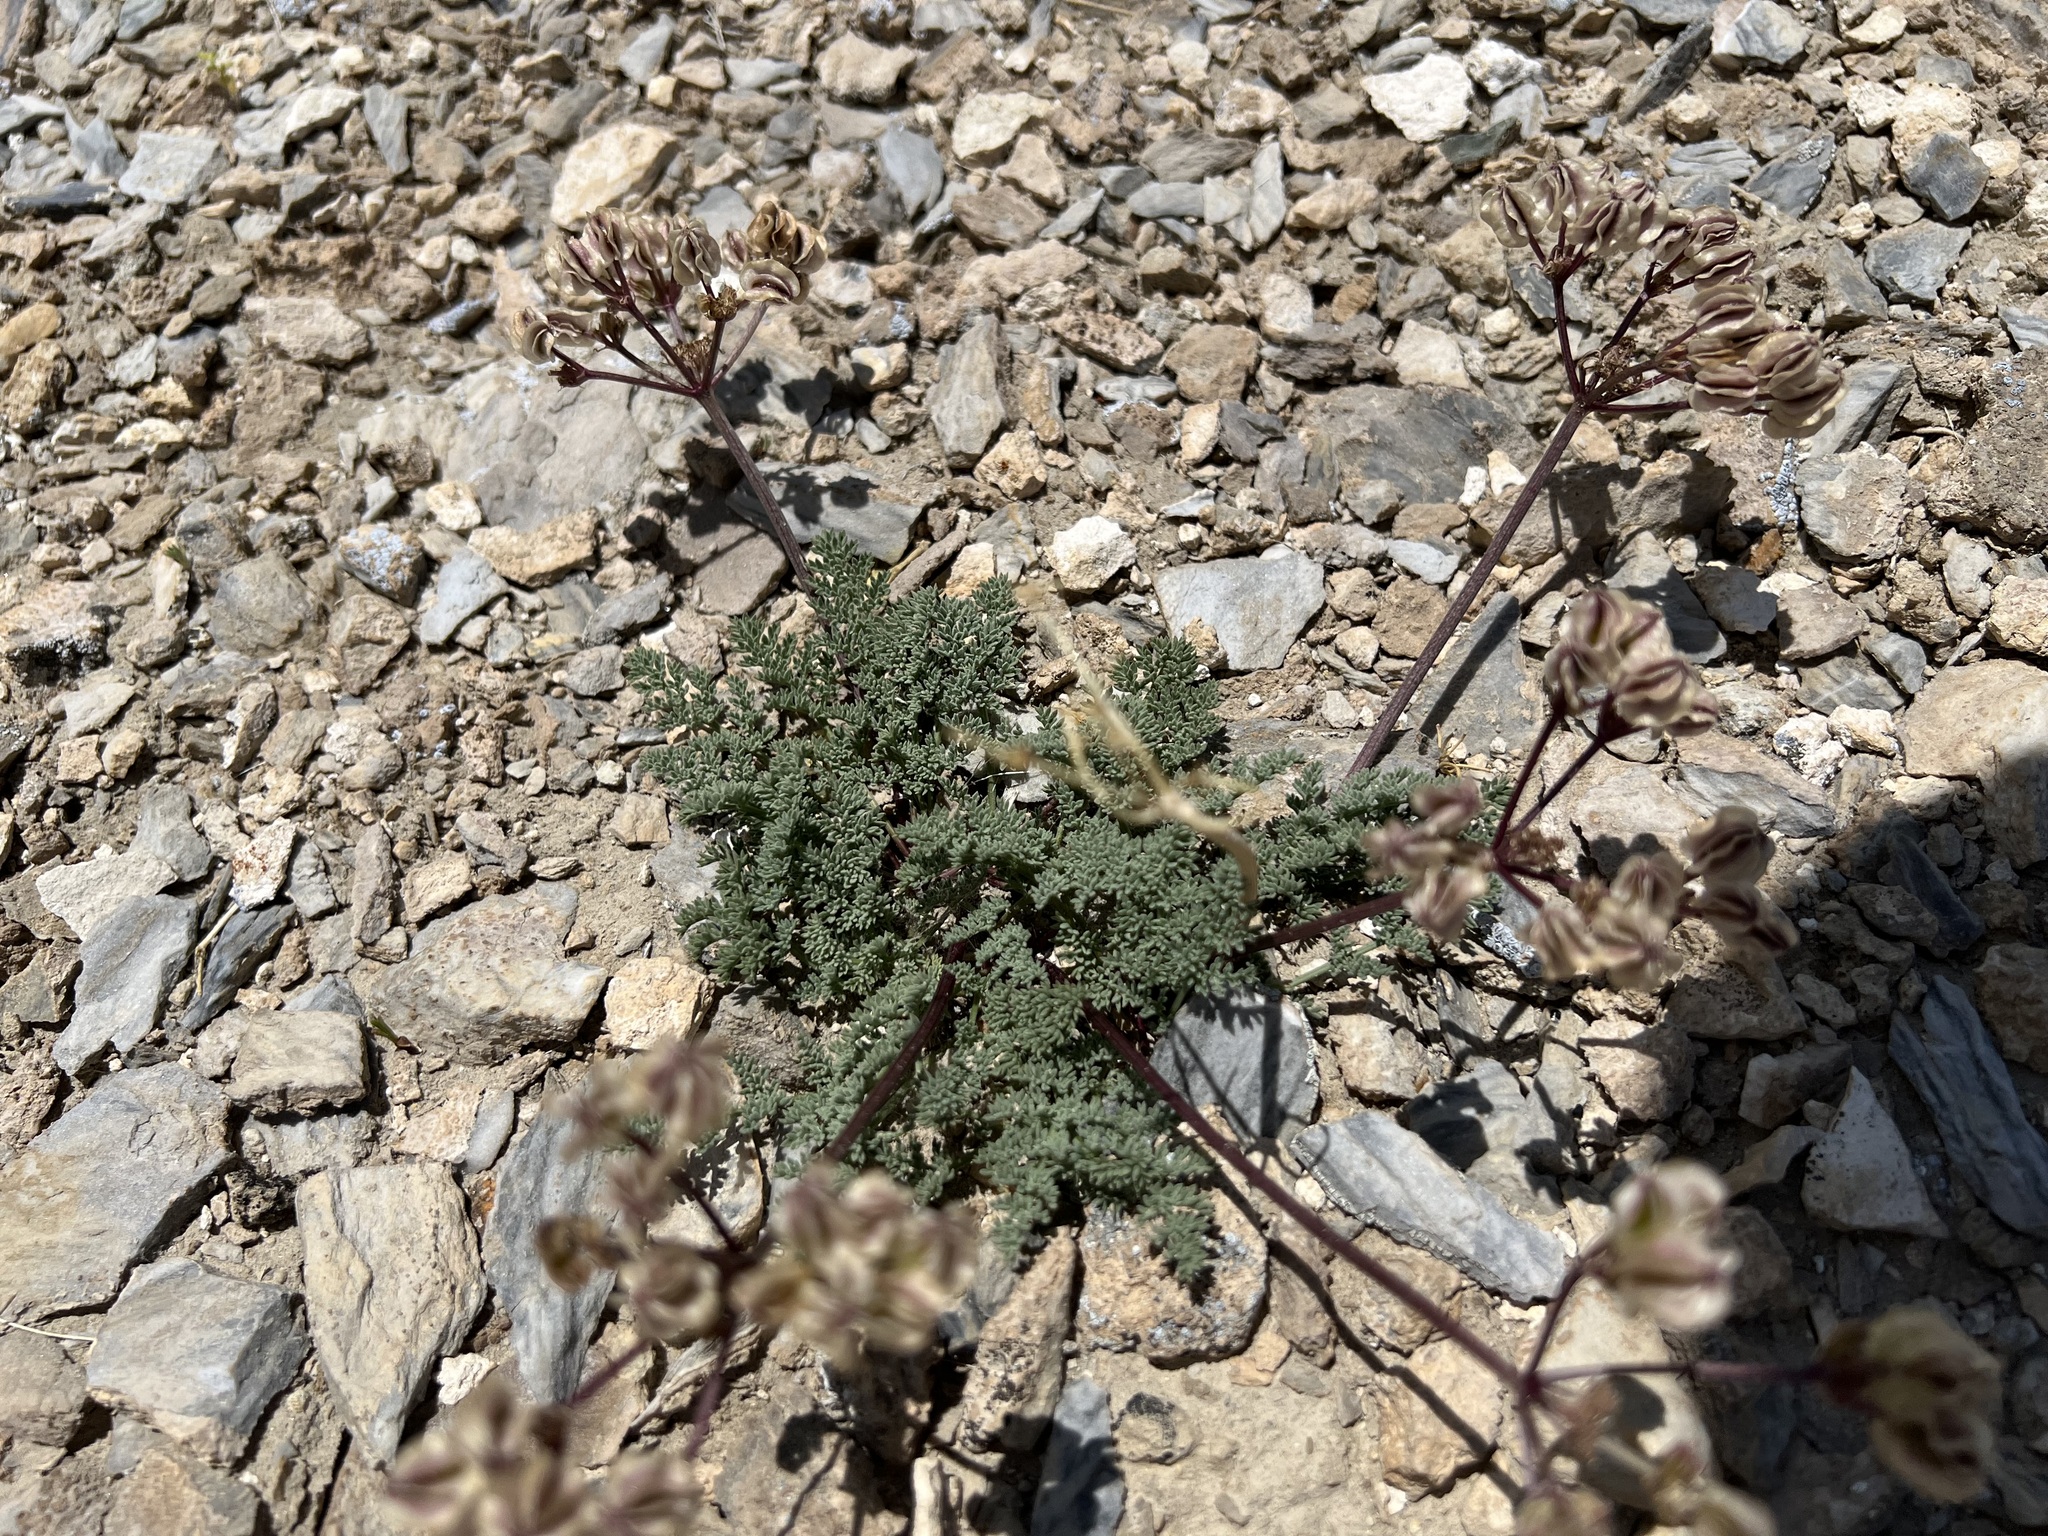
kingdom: Plantae
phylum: Tracheophyta
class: Magnoliopsida
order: Apiales
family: Apiaceae
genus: Aulospermum
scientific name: Aulospermum aboriginum
